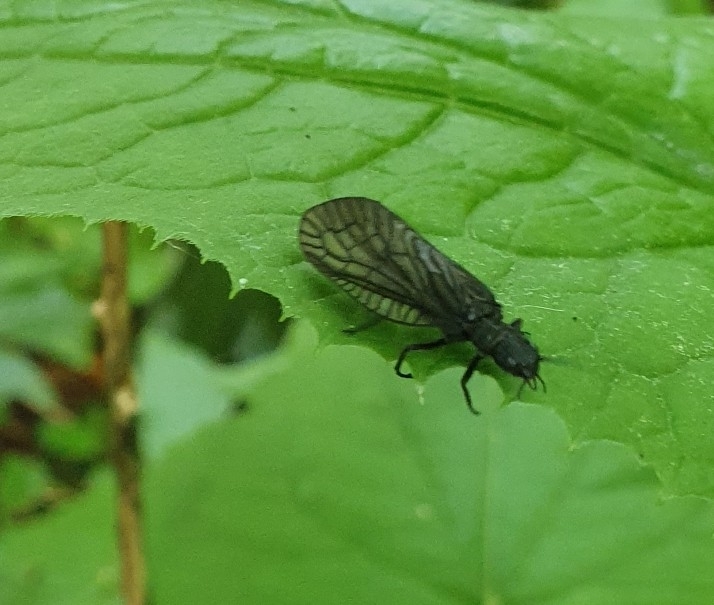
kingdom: Animalia
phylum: Arthropoda
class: Insecta
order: Megaloptera
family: Sialidae
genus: Sialis
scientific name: Sialis
